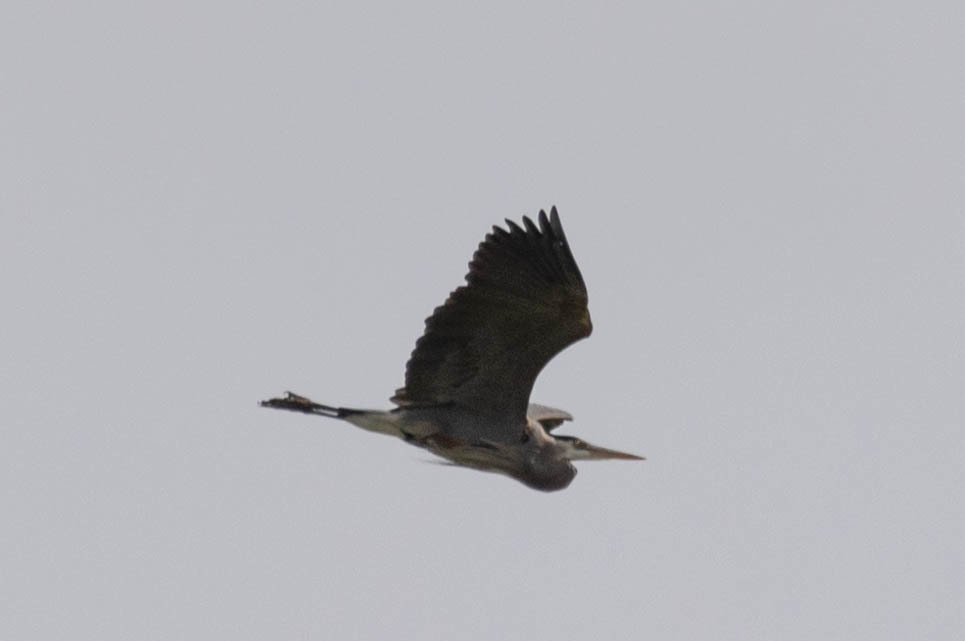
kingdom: Animalia
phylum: Chordata
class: Aves
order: Pelecaniformes
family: Ardeidae
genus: Ardea
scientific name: Ardea herodias
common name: Great blue heron
